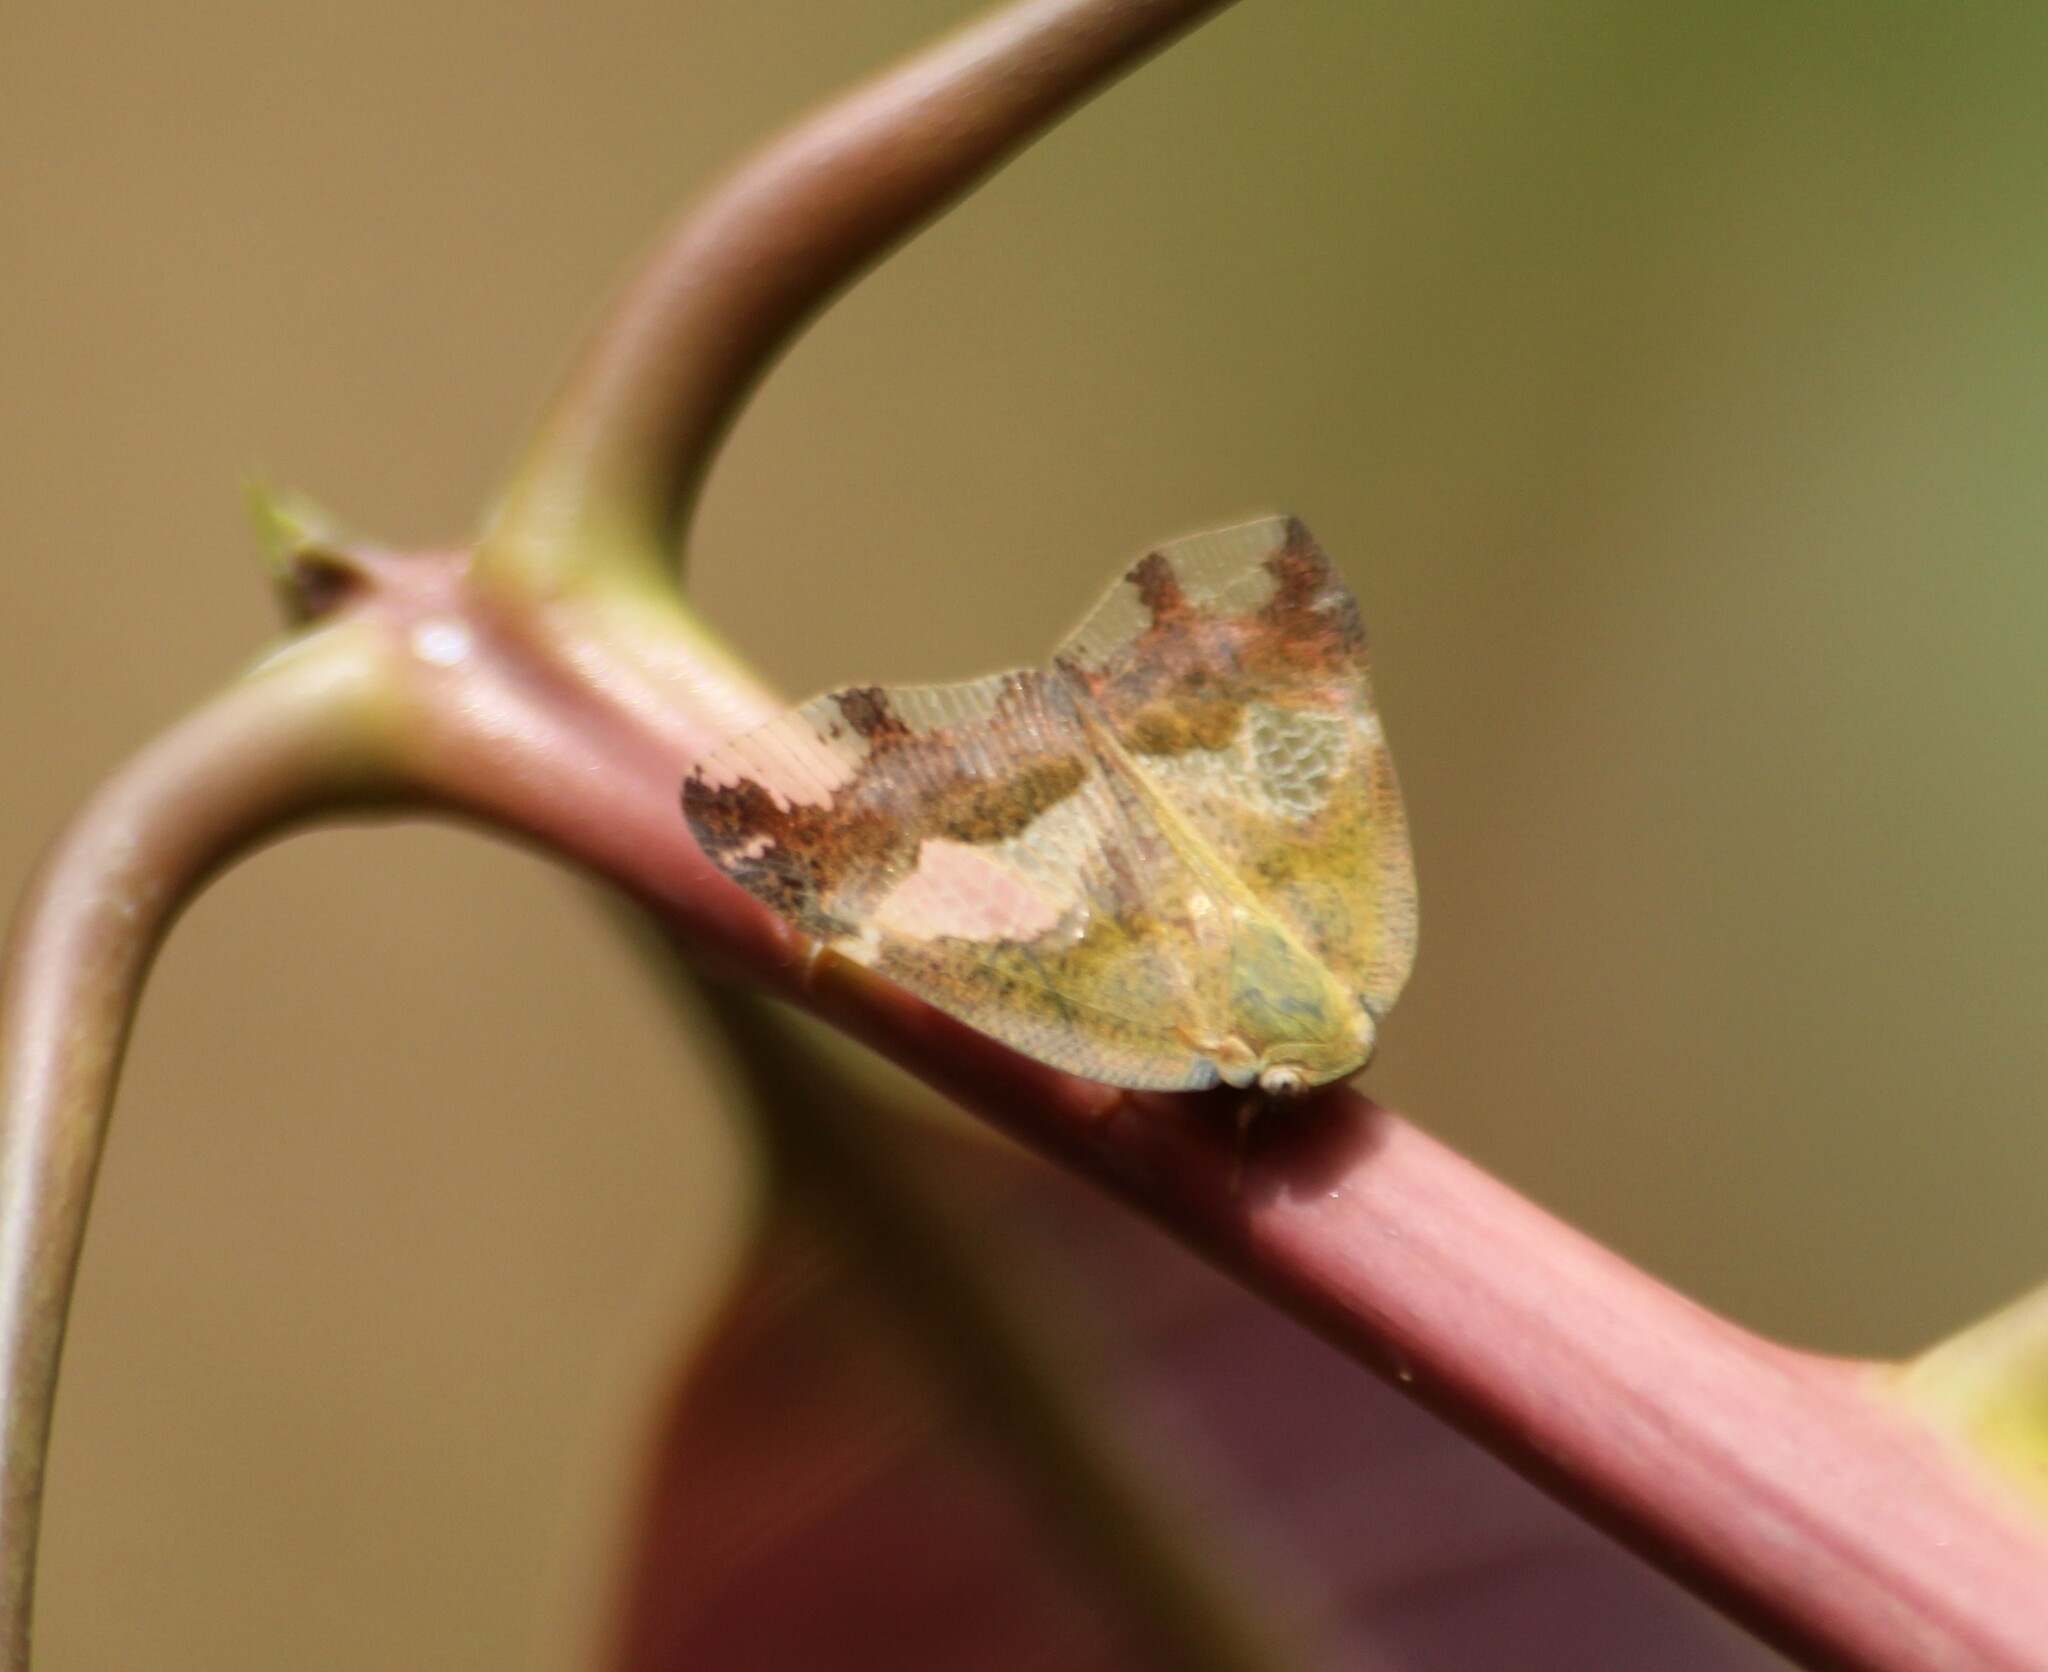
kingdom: Animalia
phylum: Arthropoda
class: Insecta
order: Hemiptera
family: Ricaniidae
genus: Ricania
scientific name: Ricania bicolorata
